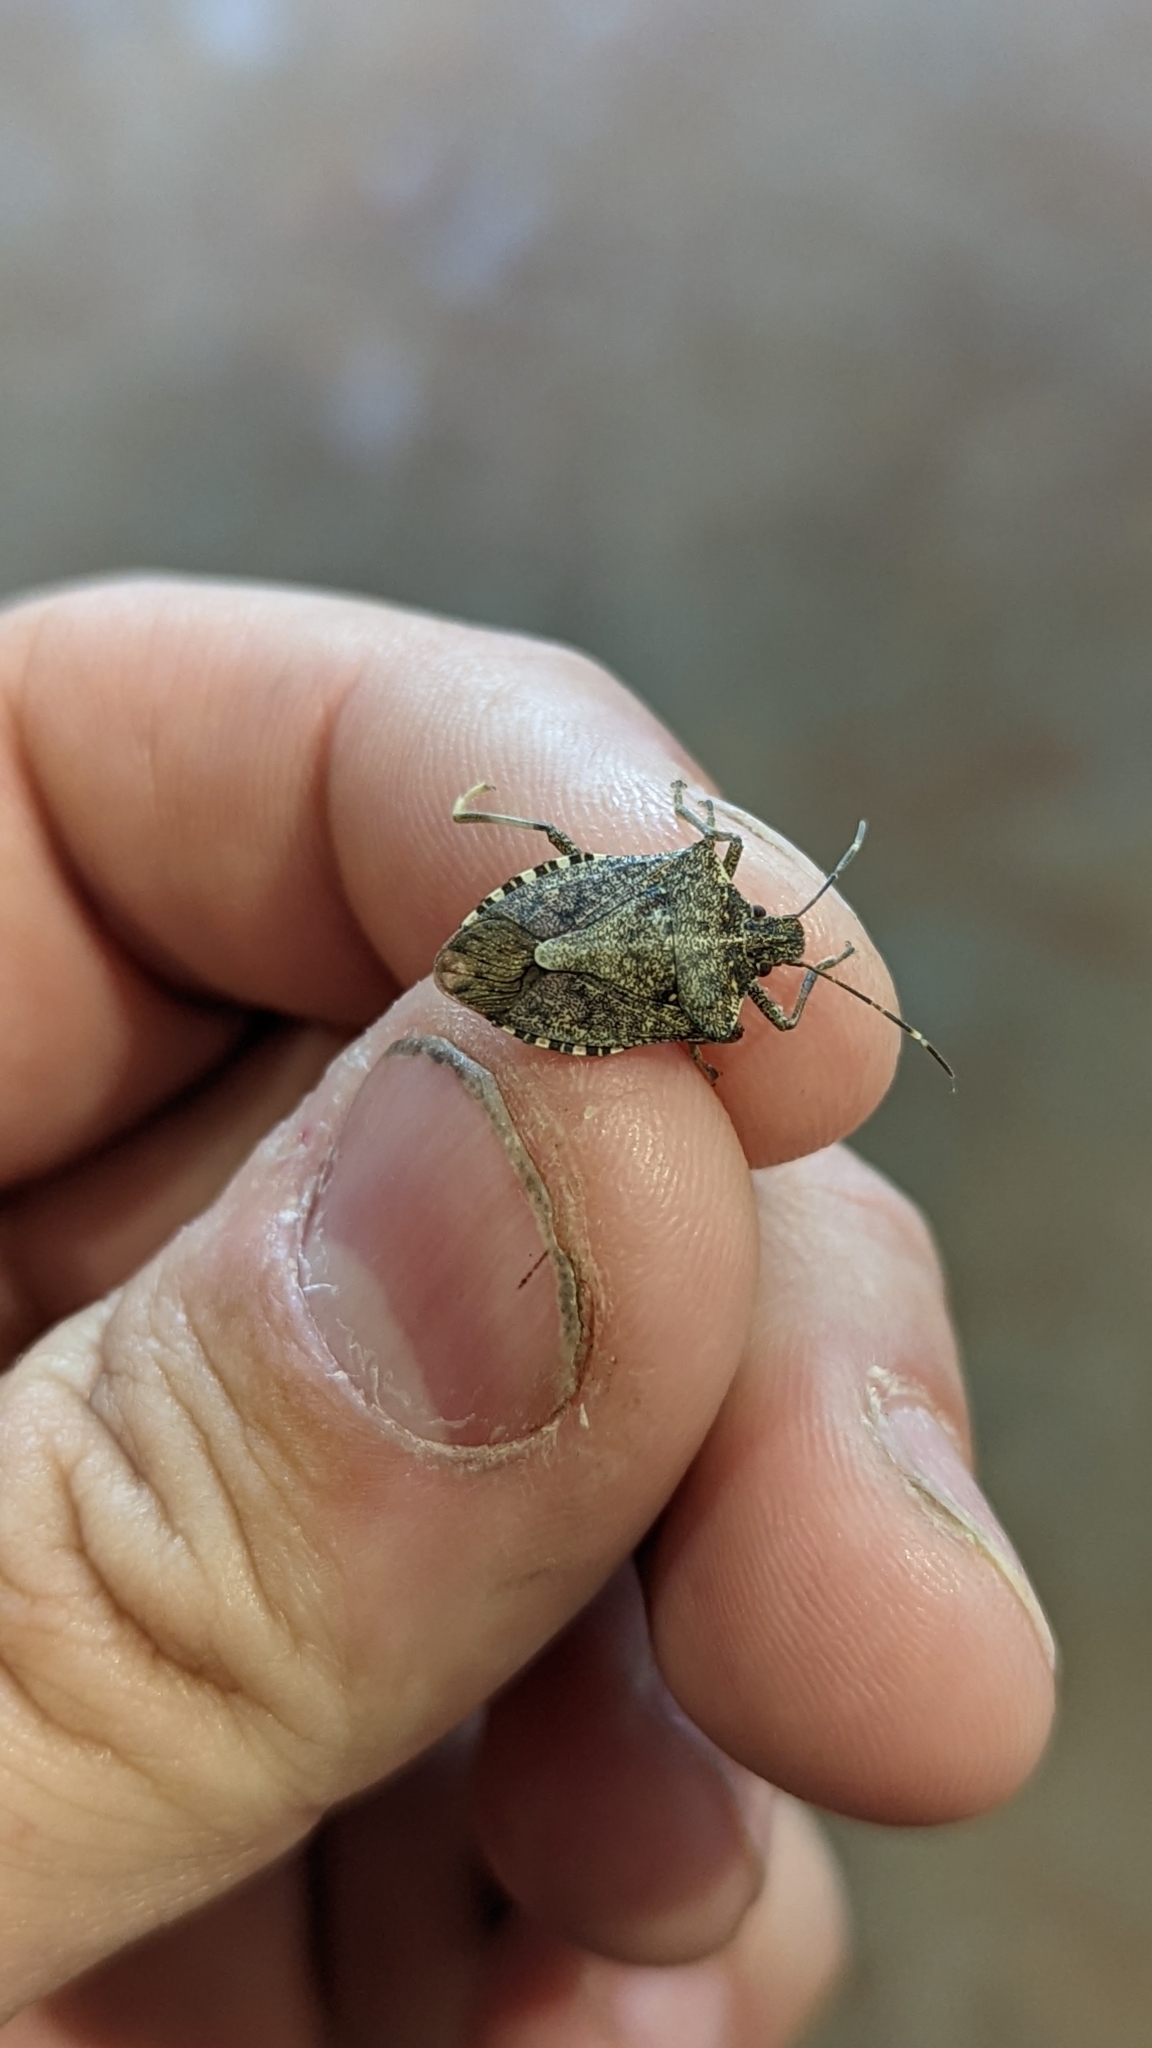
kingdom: Animalia
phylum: Arthropoda
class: Insecta
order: Hemiptera
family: Pentatomidae
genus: Halyomorpha
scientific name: Halyomorpha halys
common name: Brown marmorated stink bug
